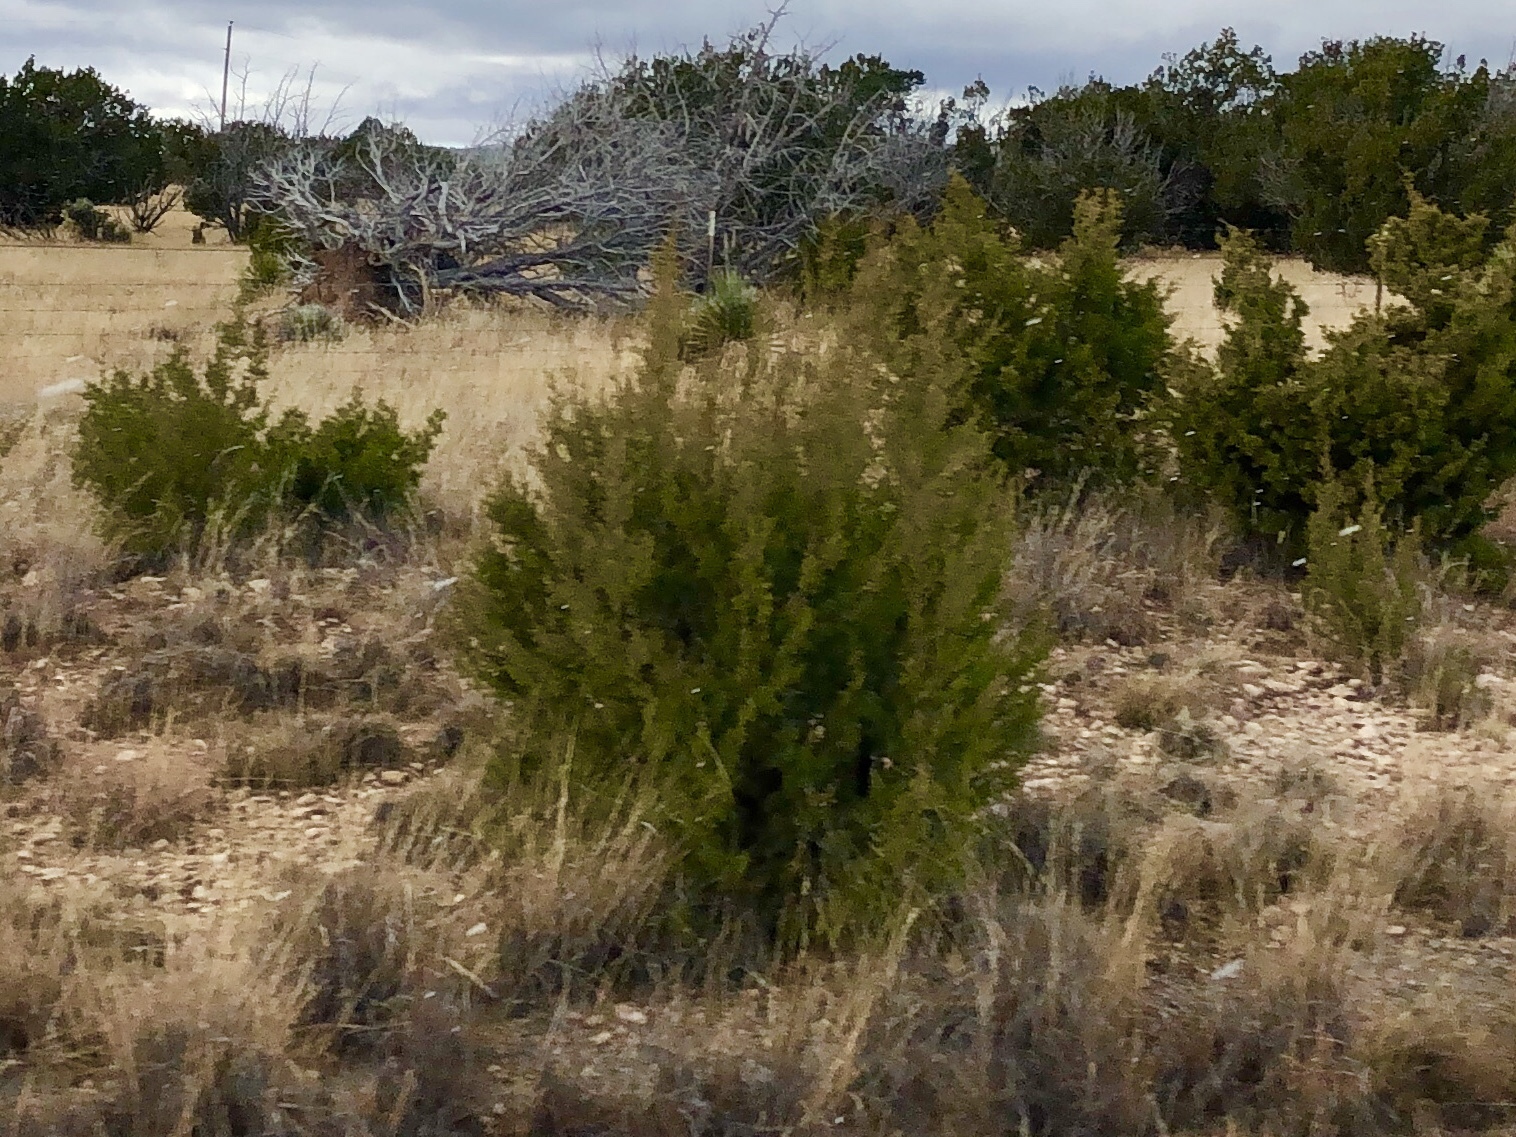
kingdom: Plantae
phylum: Tracheophyta
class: Pinopsida
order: Pinales
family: Cupressaceae
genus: Juniperus
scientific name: Juniperus monosperma
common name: One-seed juniper
